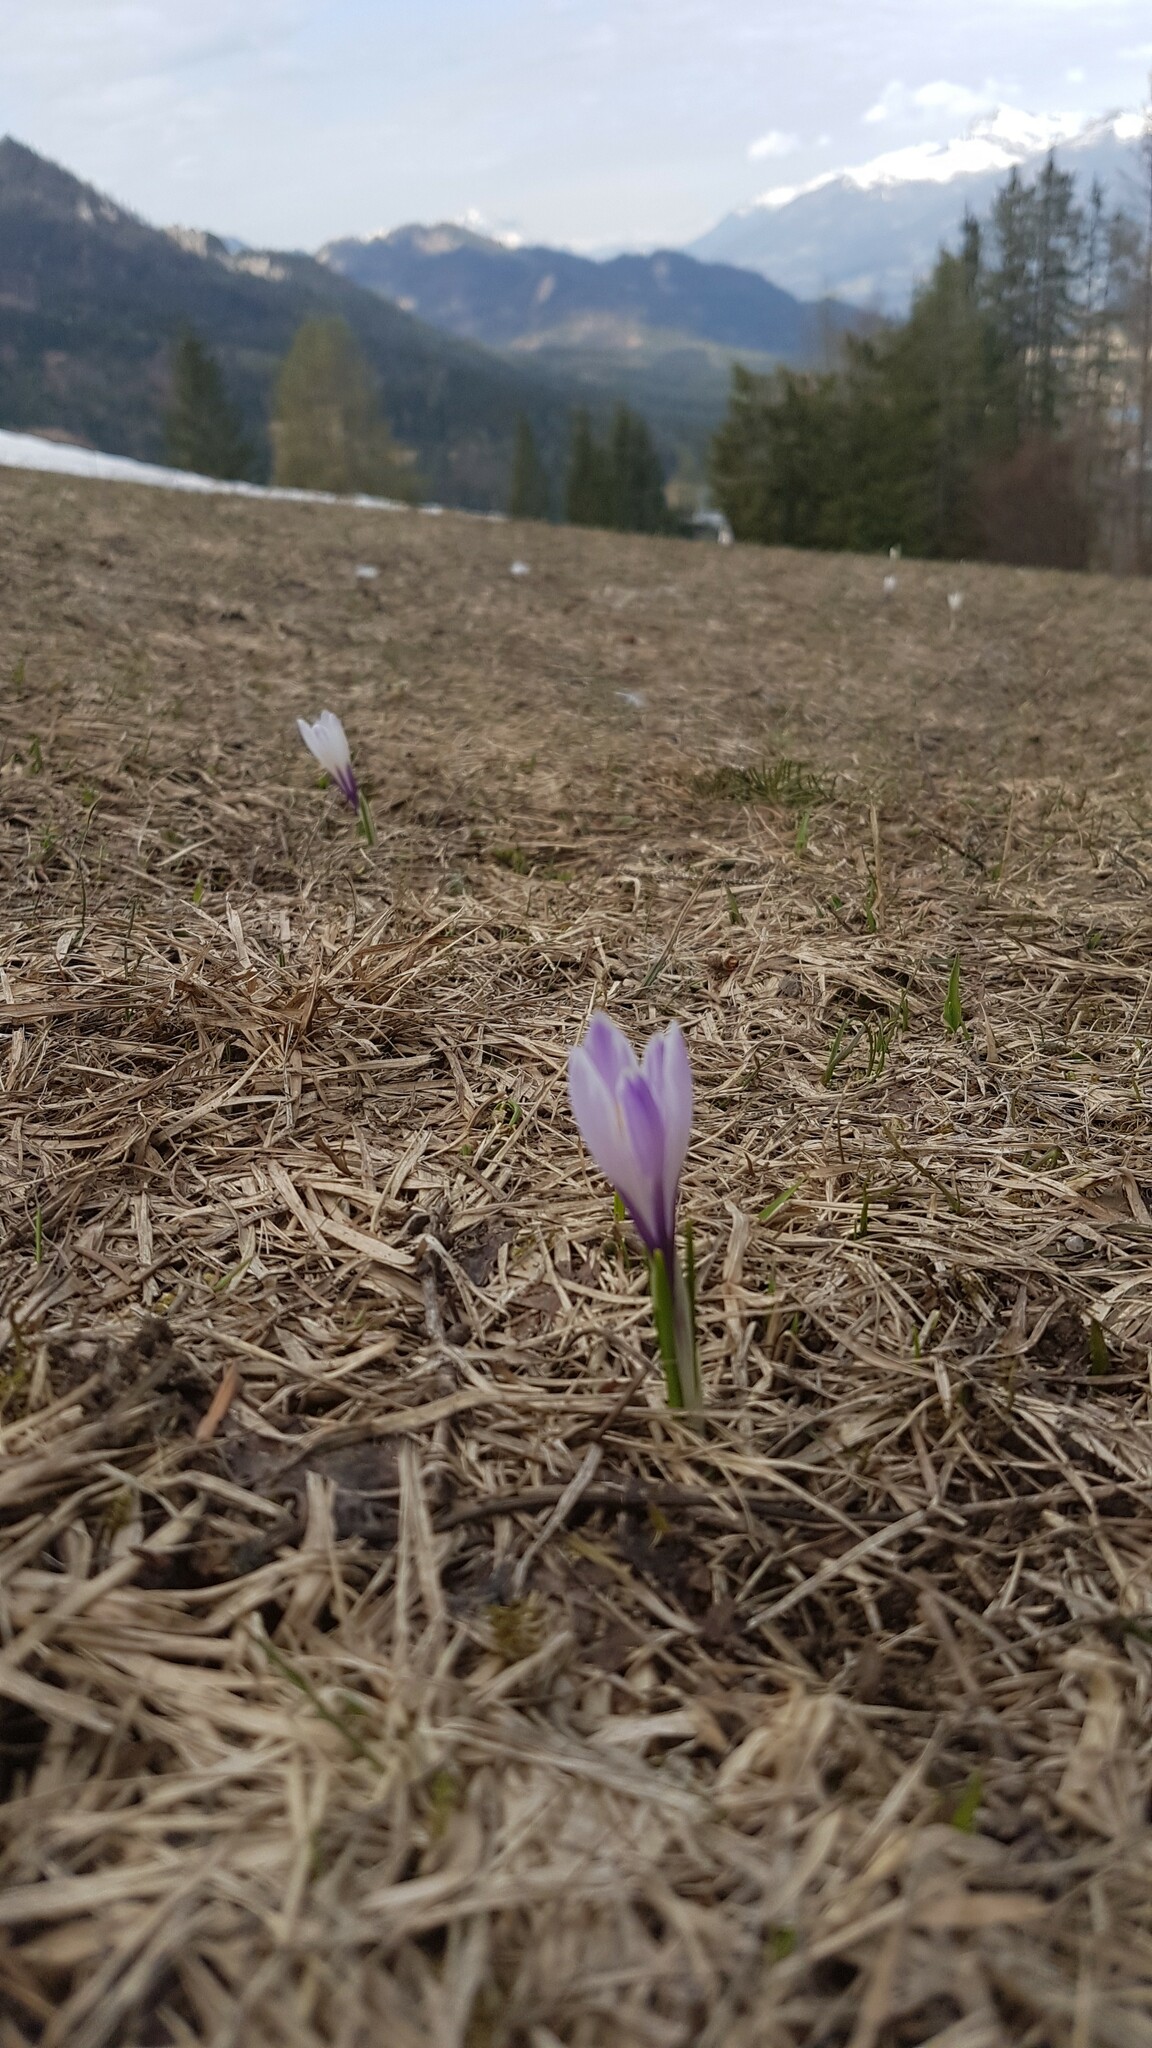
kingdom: Plantae
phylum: Tracheophyta
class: Liliopsida
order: Asparagales
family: Iridaceae
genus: Crocus
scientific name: Crocus vernus
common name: Spring crocus
